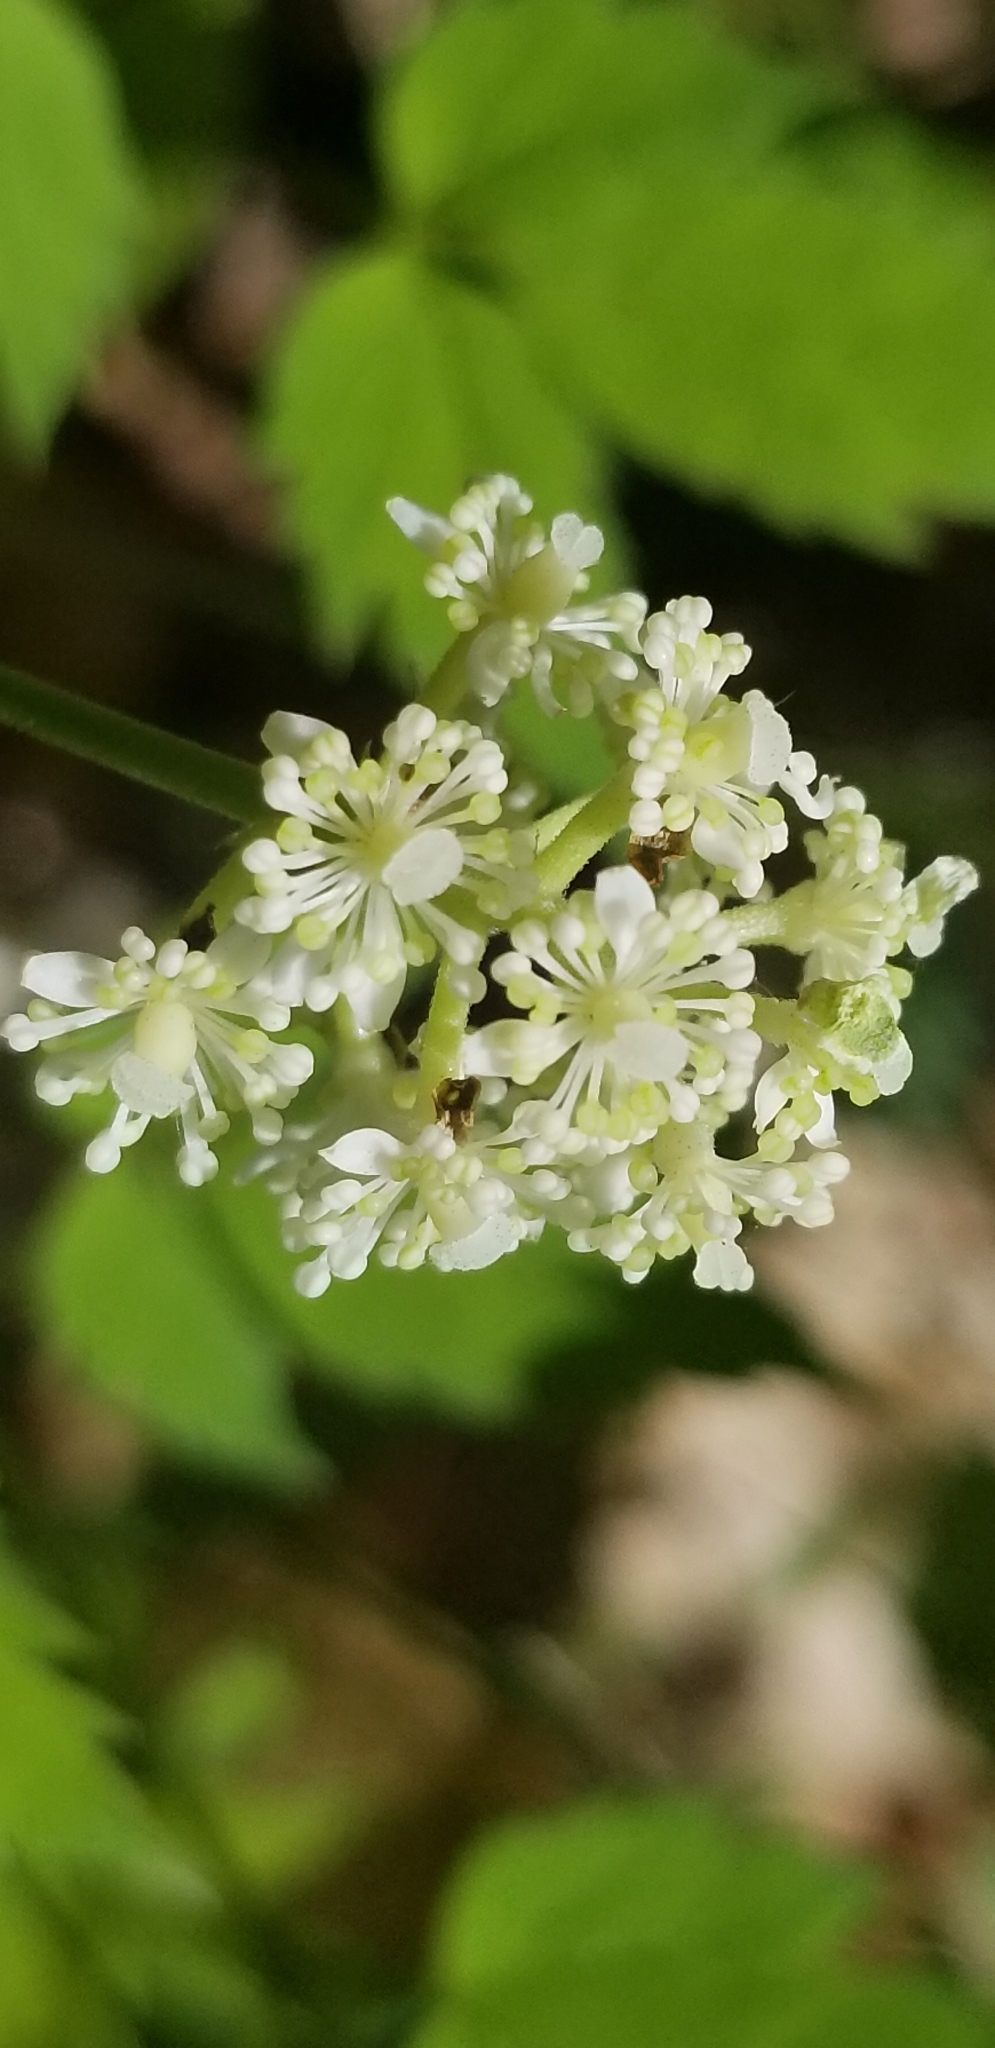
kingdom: Plantae
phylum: Tracheophyta
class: Magnoliopsida
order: Ranunculales
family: Ranunculaceae
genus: Actaea
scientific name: Actaea pachypoda
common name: Doll's-eyes
